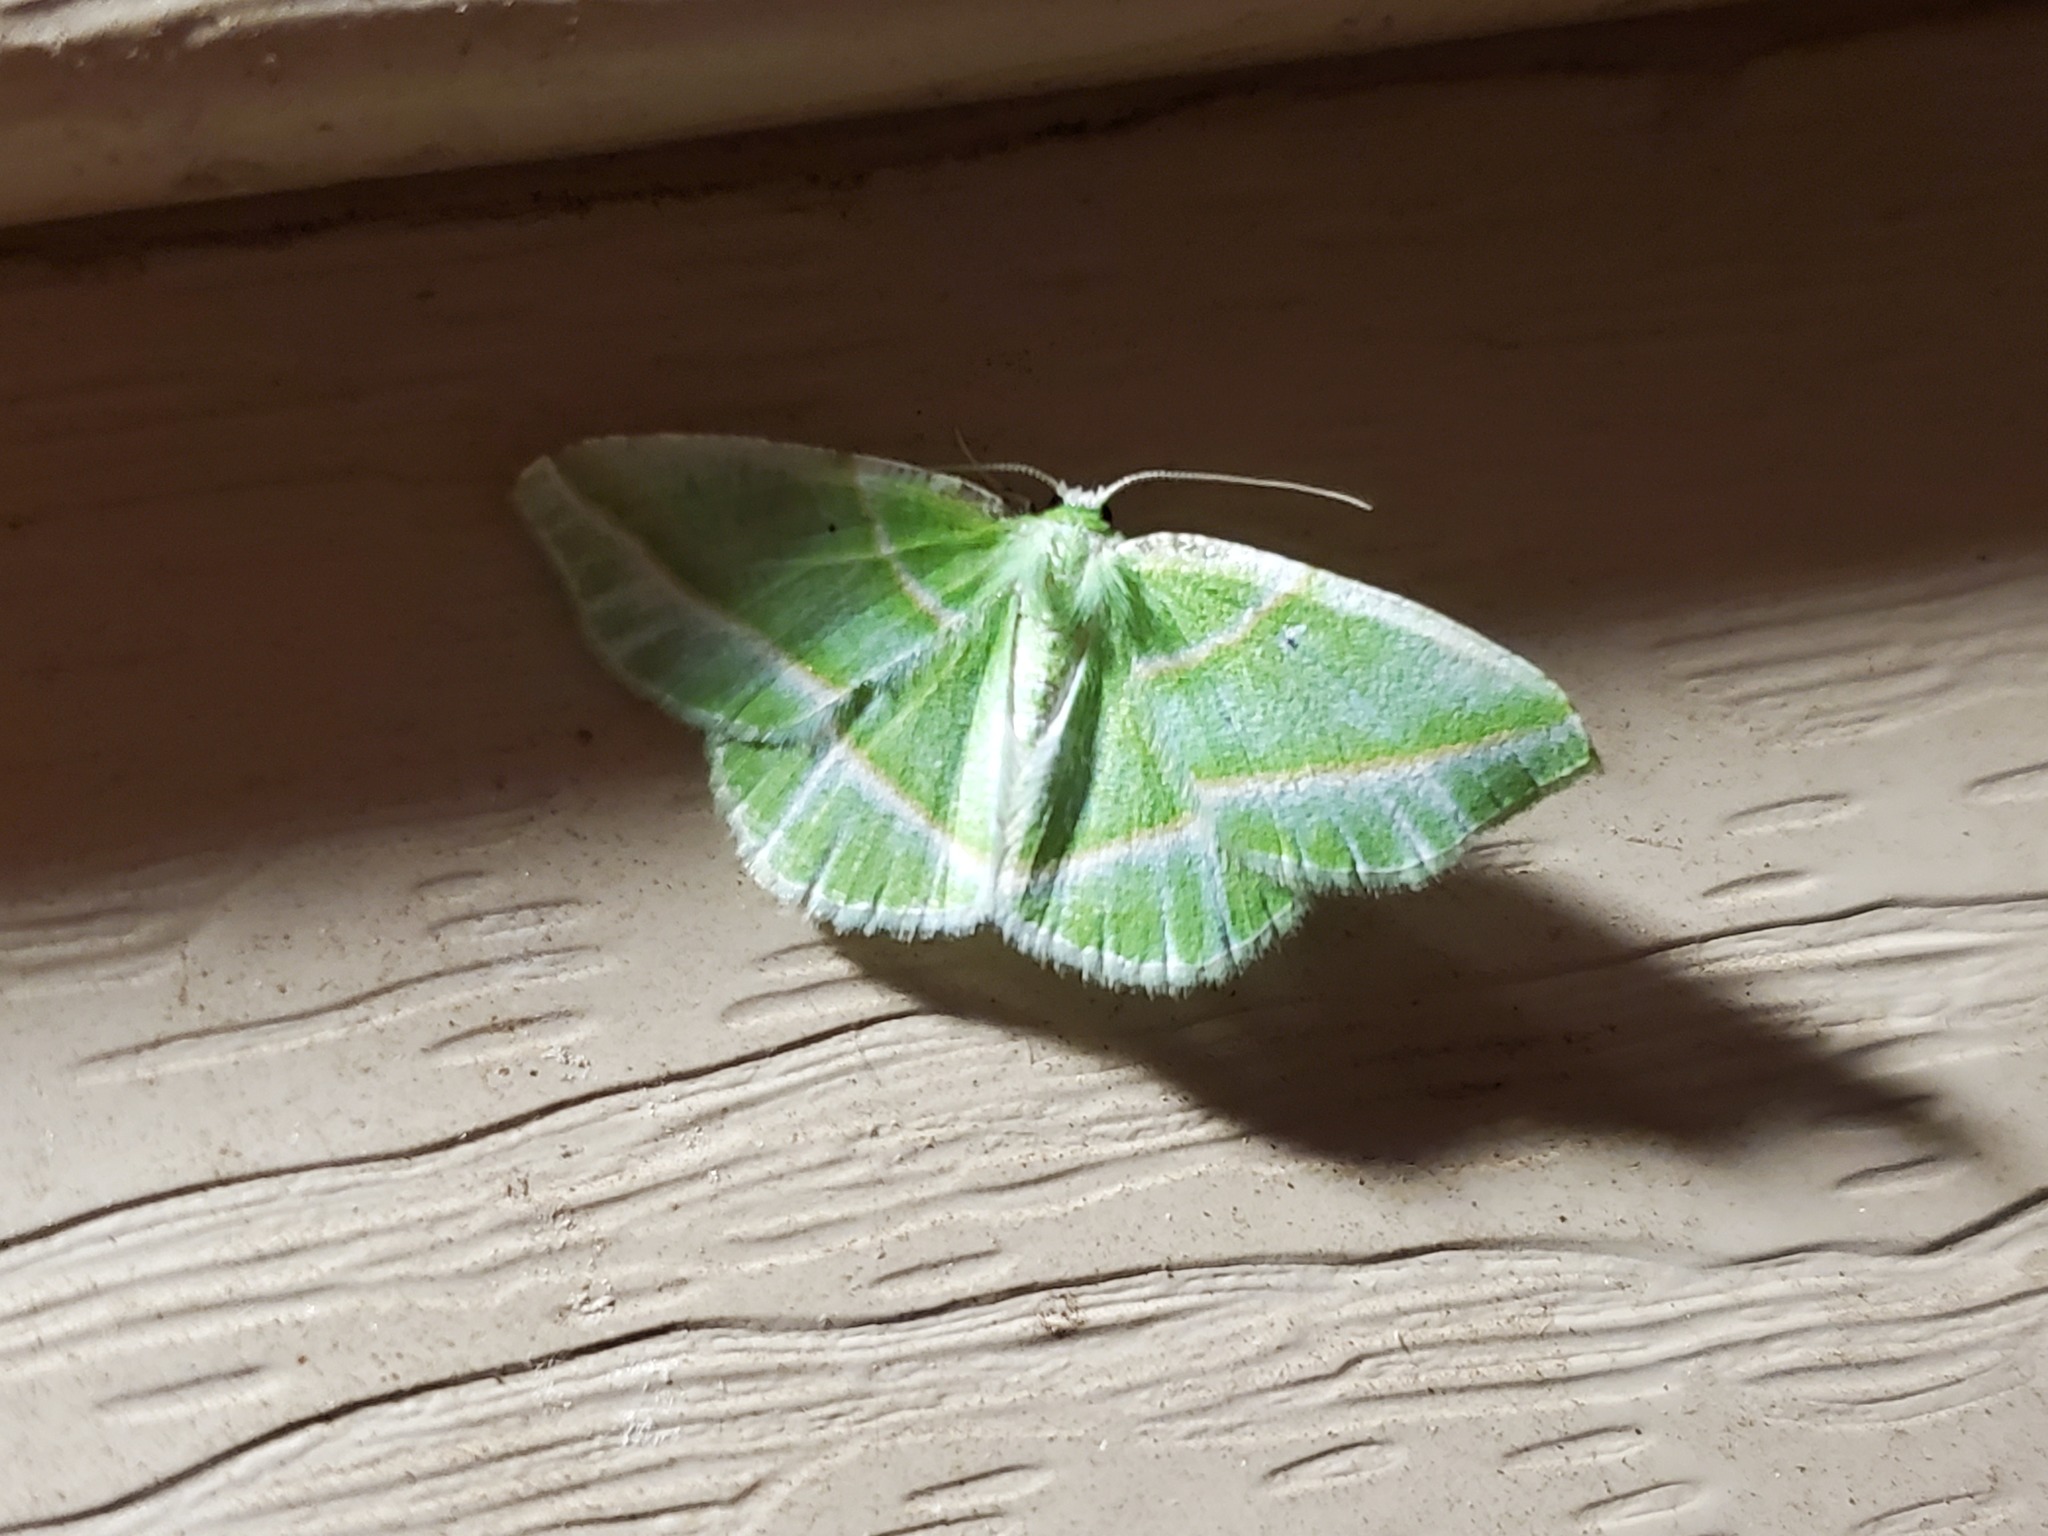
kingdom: Animalia
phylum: Arthropoda
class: Insecta
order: Lepidoptera
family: Geometridae
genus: Dichorda
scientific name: Dichorda iridaria
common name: Showy emerald
